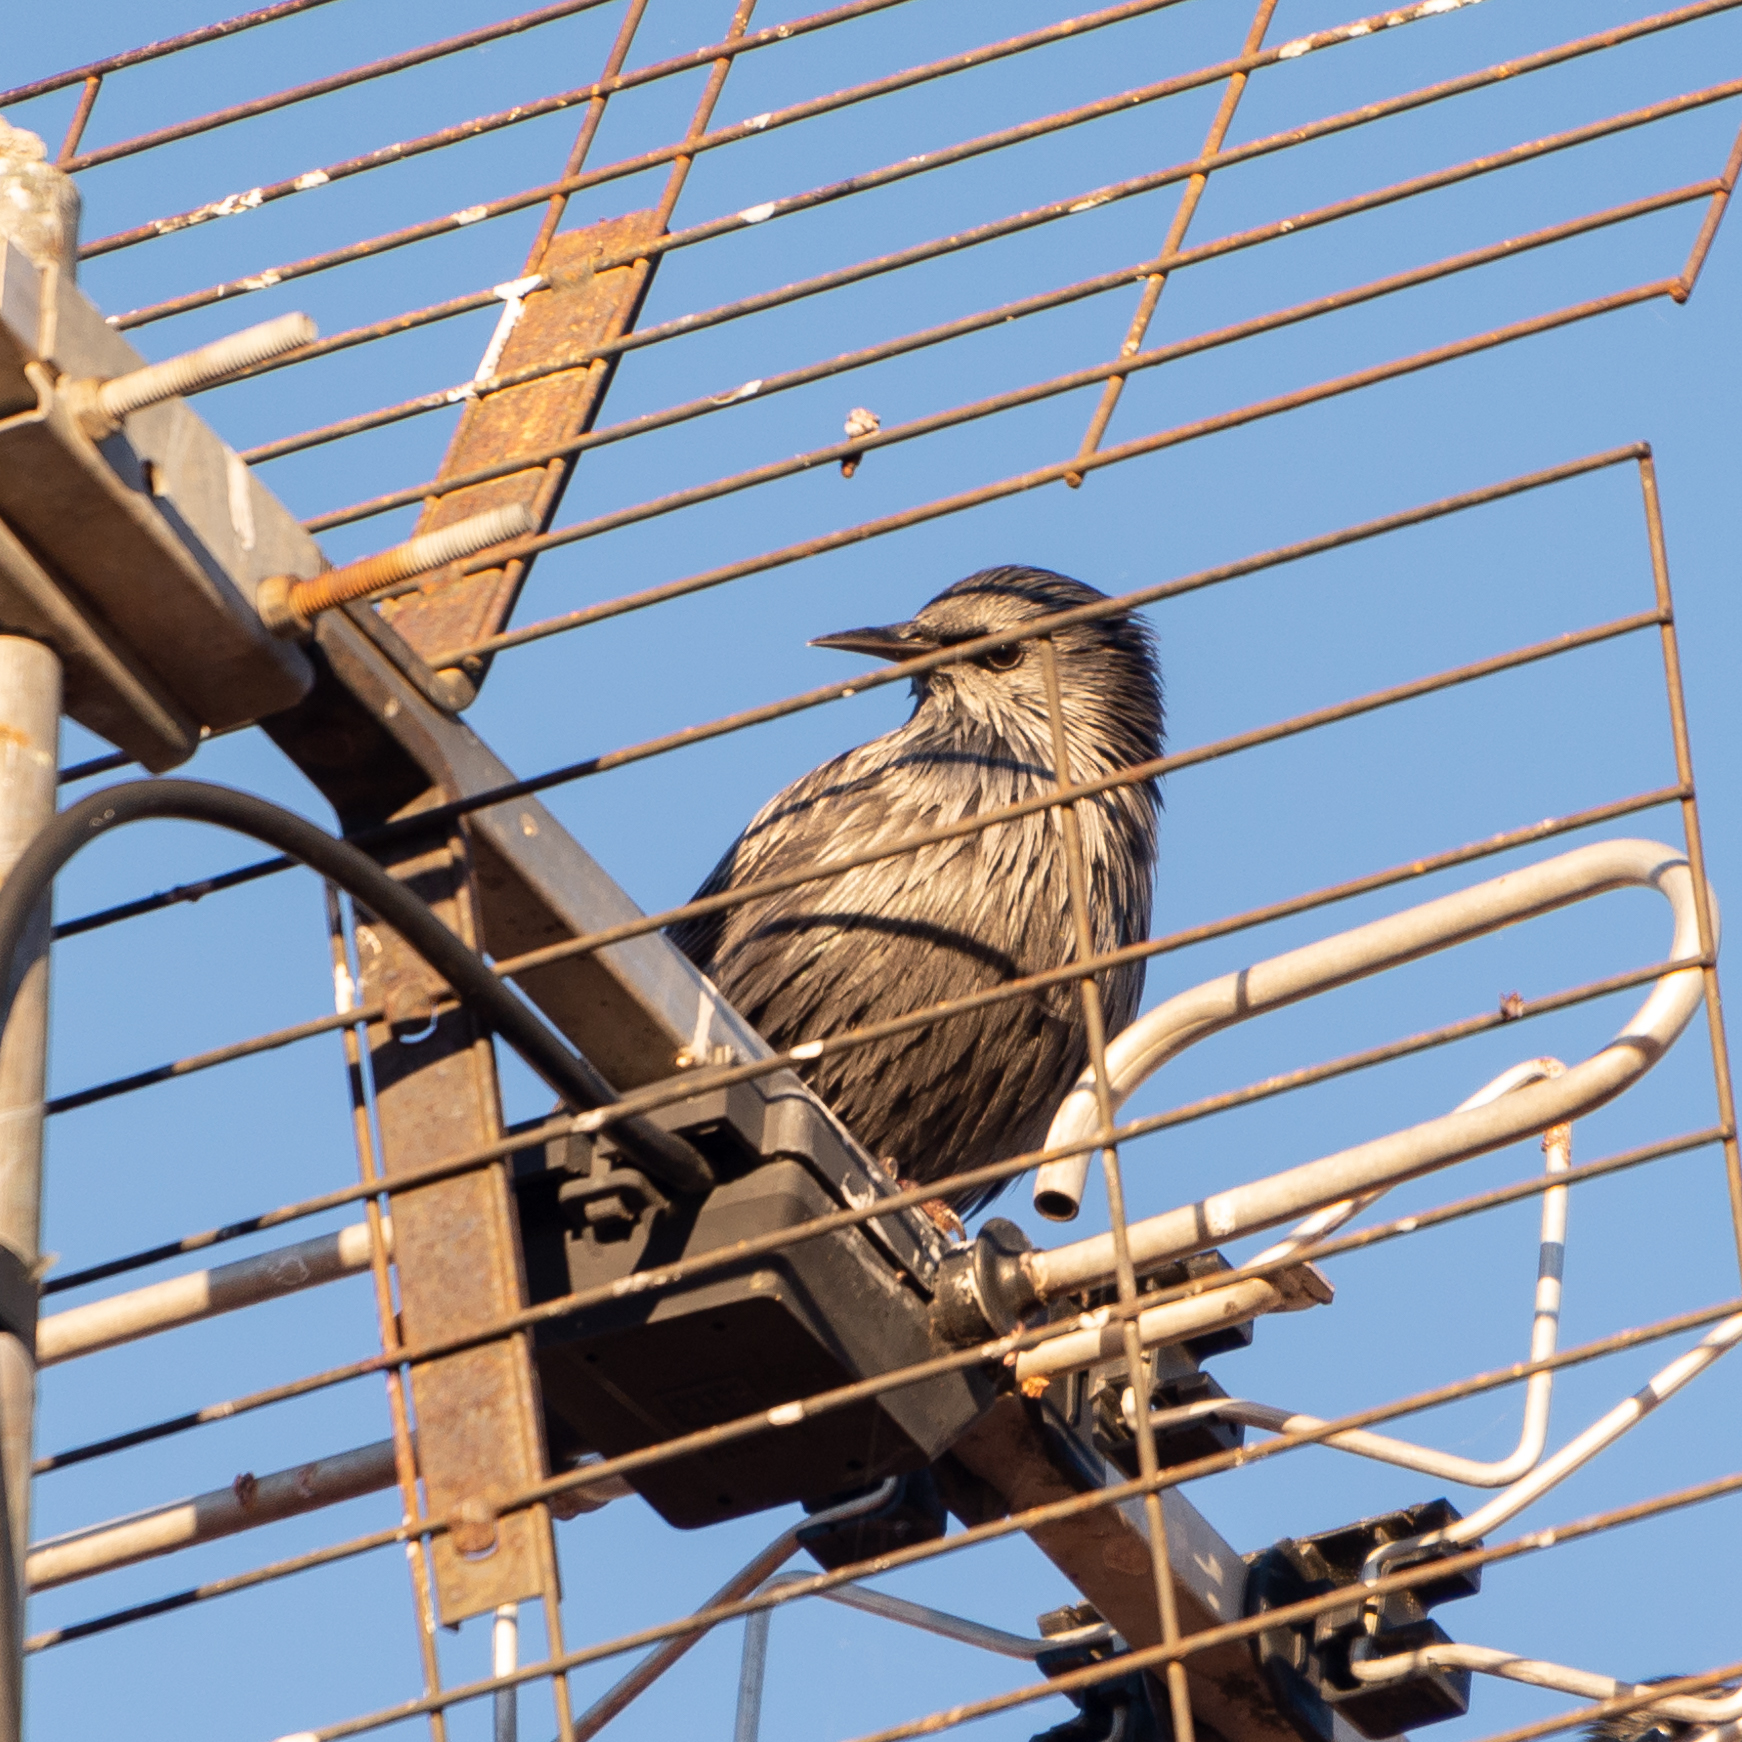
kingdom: Animalia
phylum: Chordata
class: Aves
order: Passeriformes
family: Sturnidae
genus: Sturnus
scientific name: Sturnus unicolor
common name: Spotless starling
